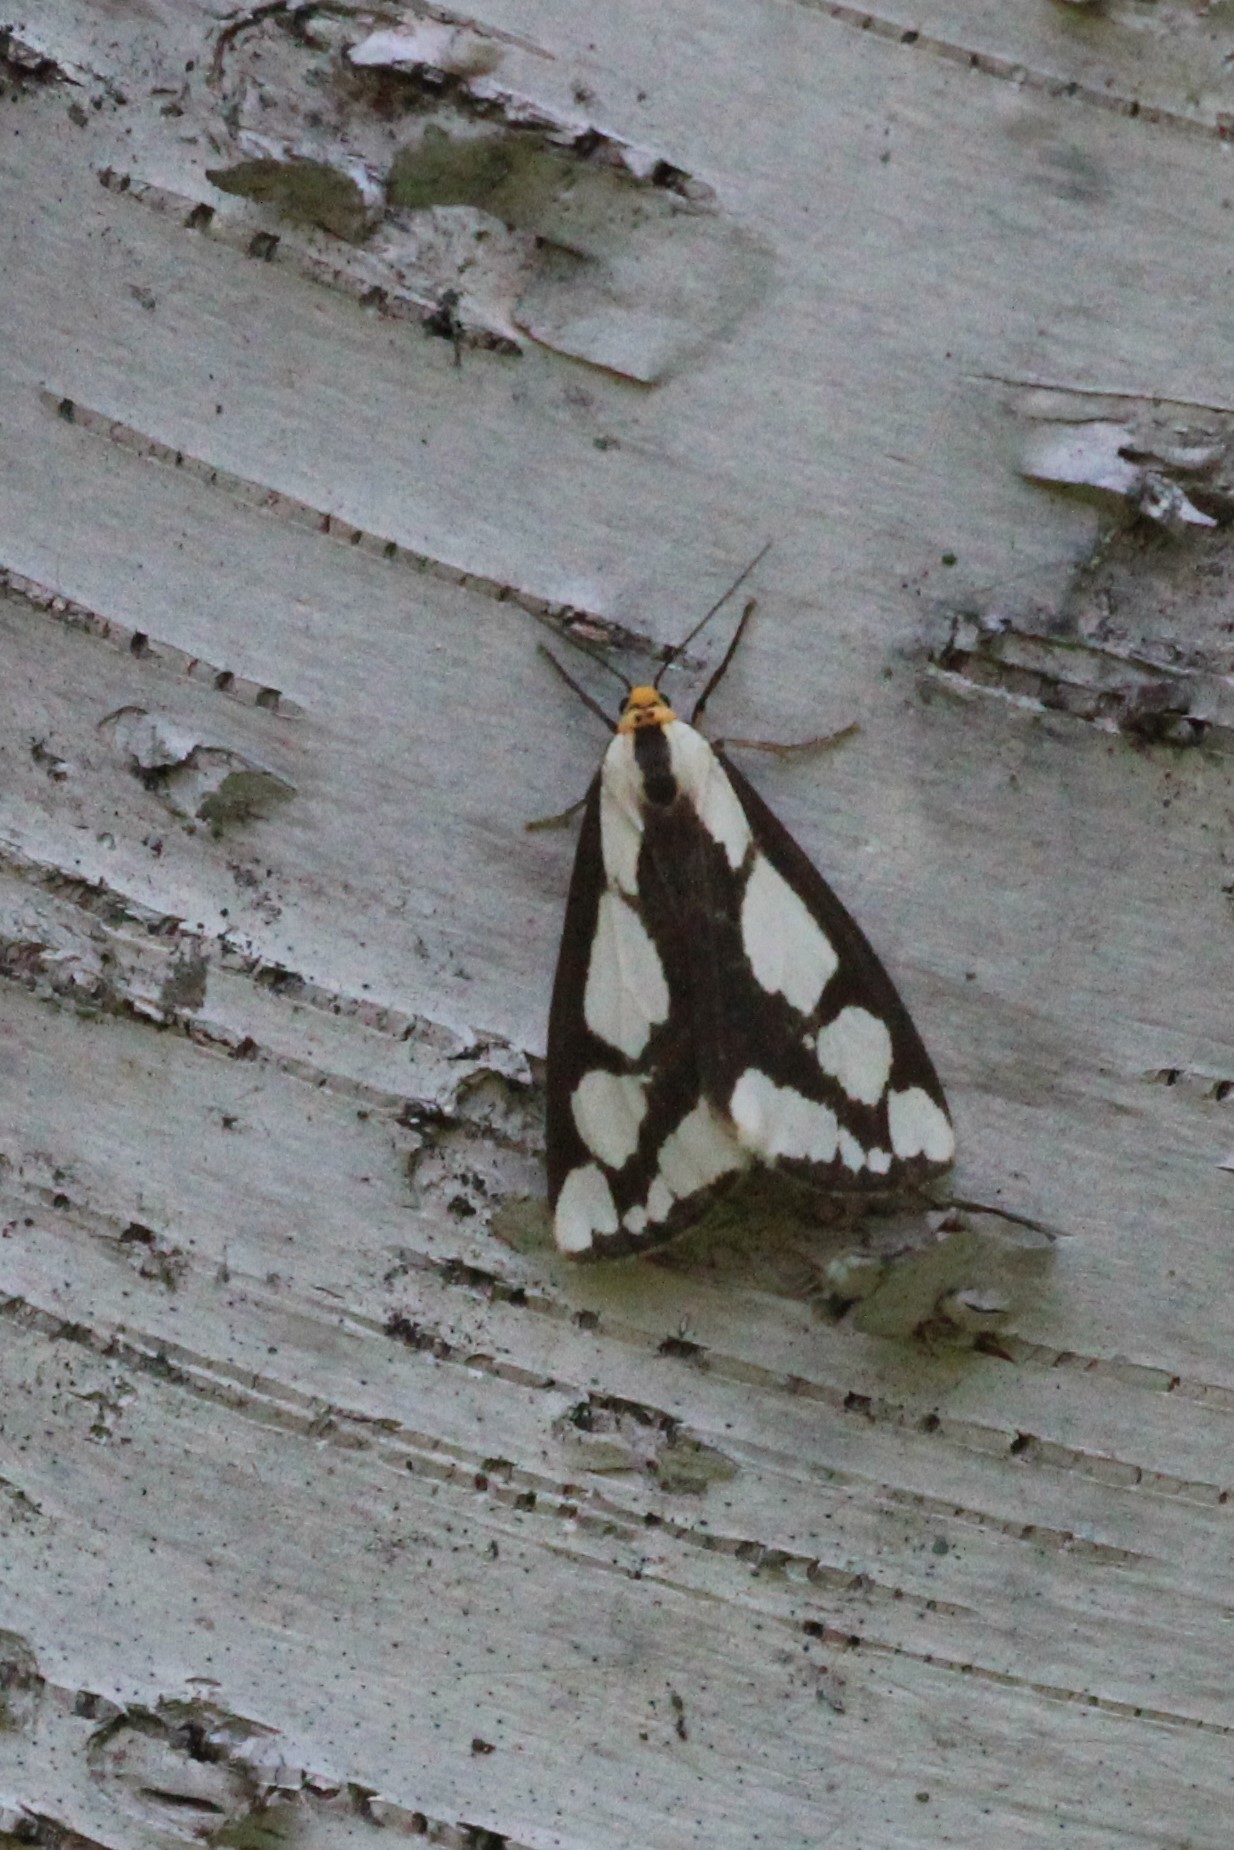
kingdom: Animalia
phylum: Arthropoda
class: Insecta
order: Lepidoptera
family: Erebidae
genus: Haploa
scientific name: Haploa lecontei
